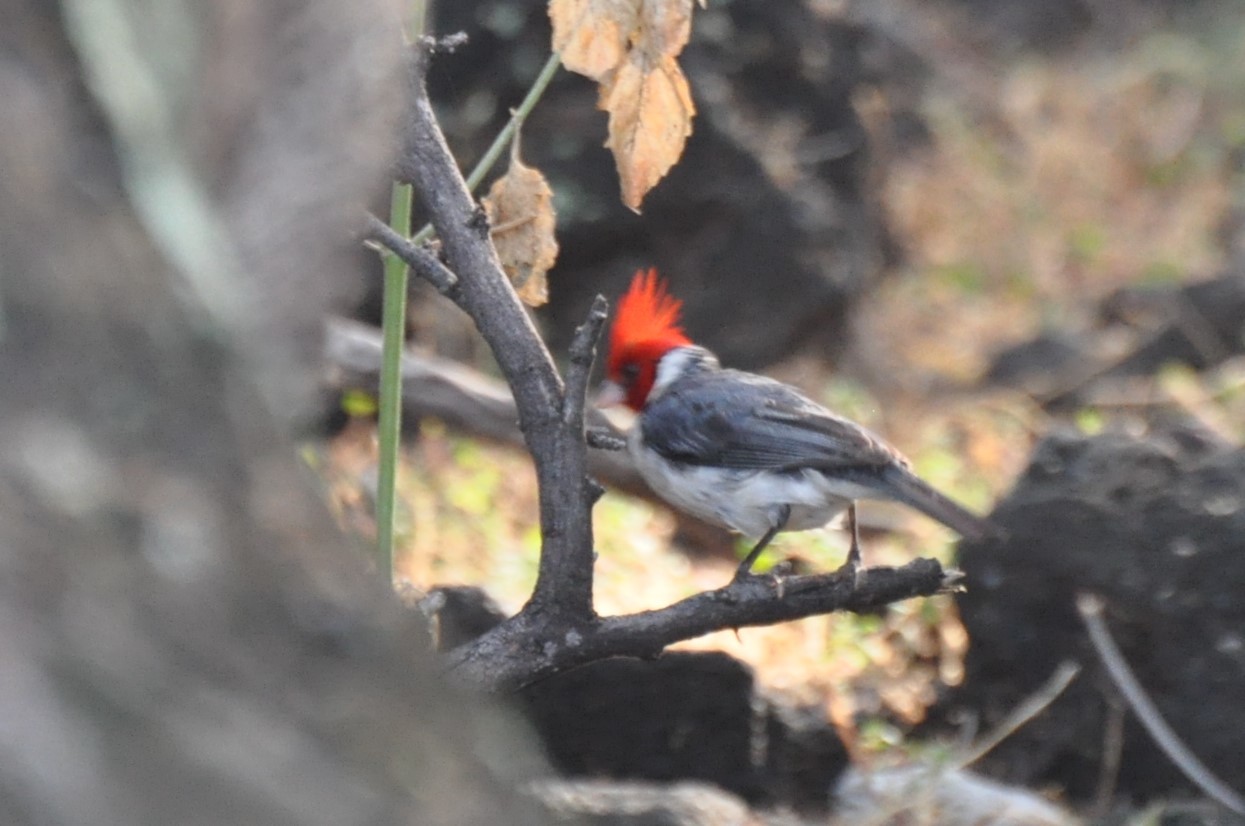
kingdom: Animalia
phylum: Chordata
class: Aves
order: Passeriformes
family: Thraupidae
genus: Paroaria
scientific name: Paroaria coronata
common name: Red-crested cardinal
